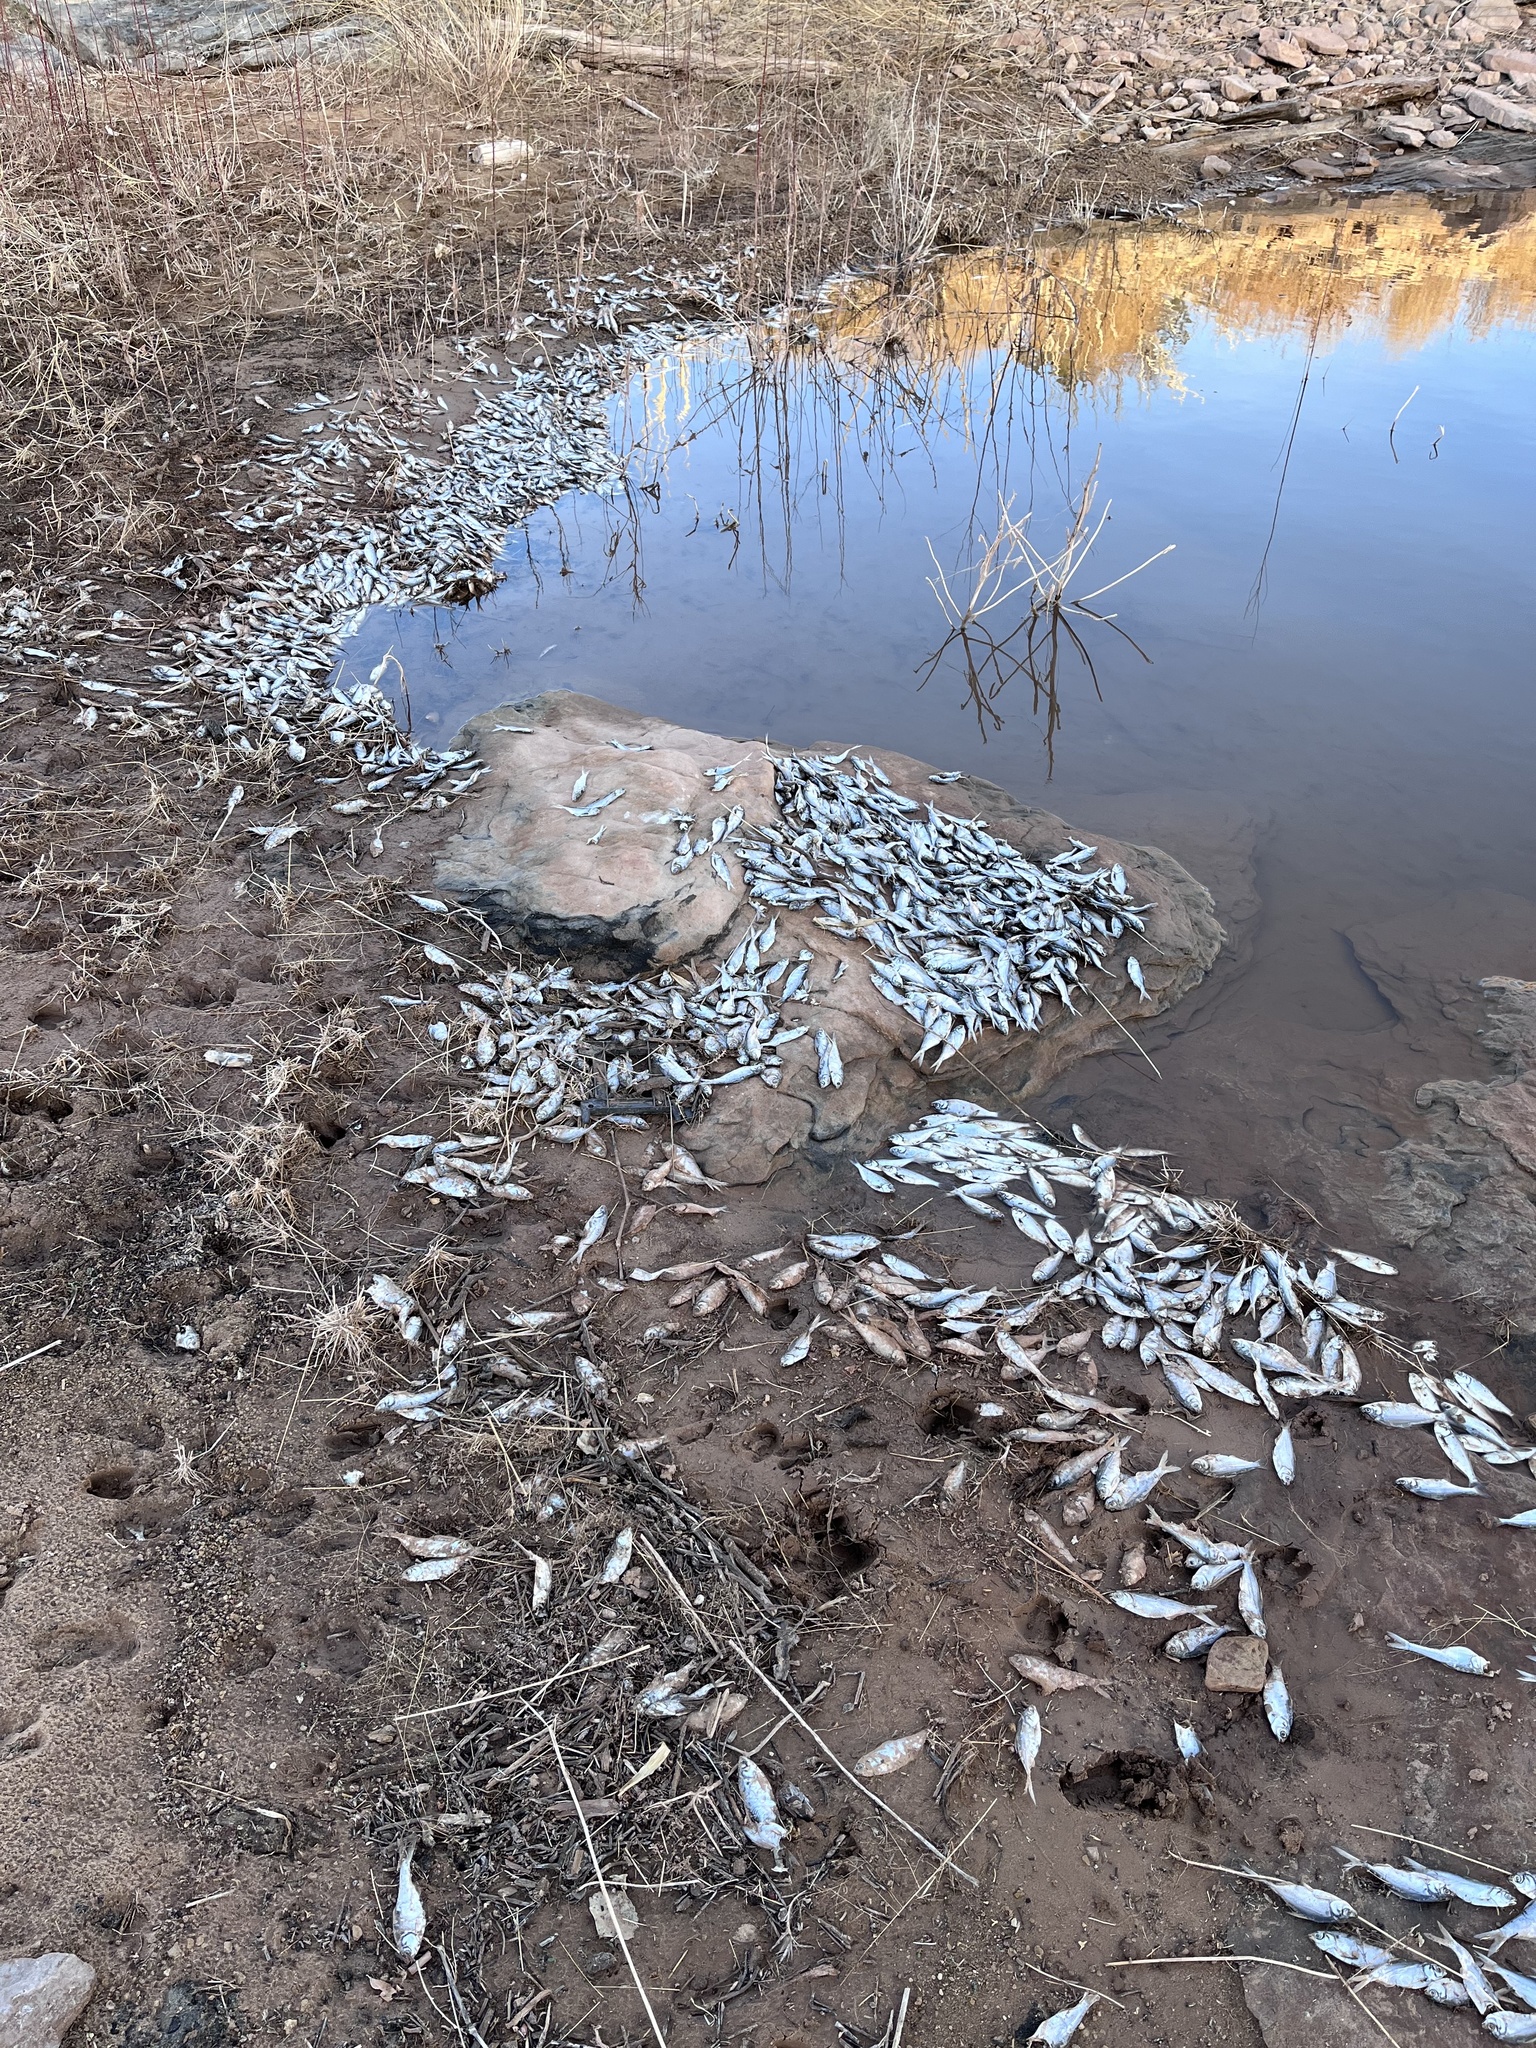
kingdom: Animalia
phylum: Chordata
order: Clupeiformes
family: Clupeidae
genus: Dorosoma
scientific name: Dorosoma cepedianum
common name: Gizzard shad
